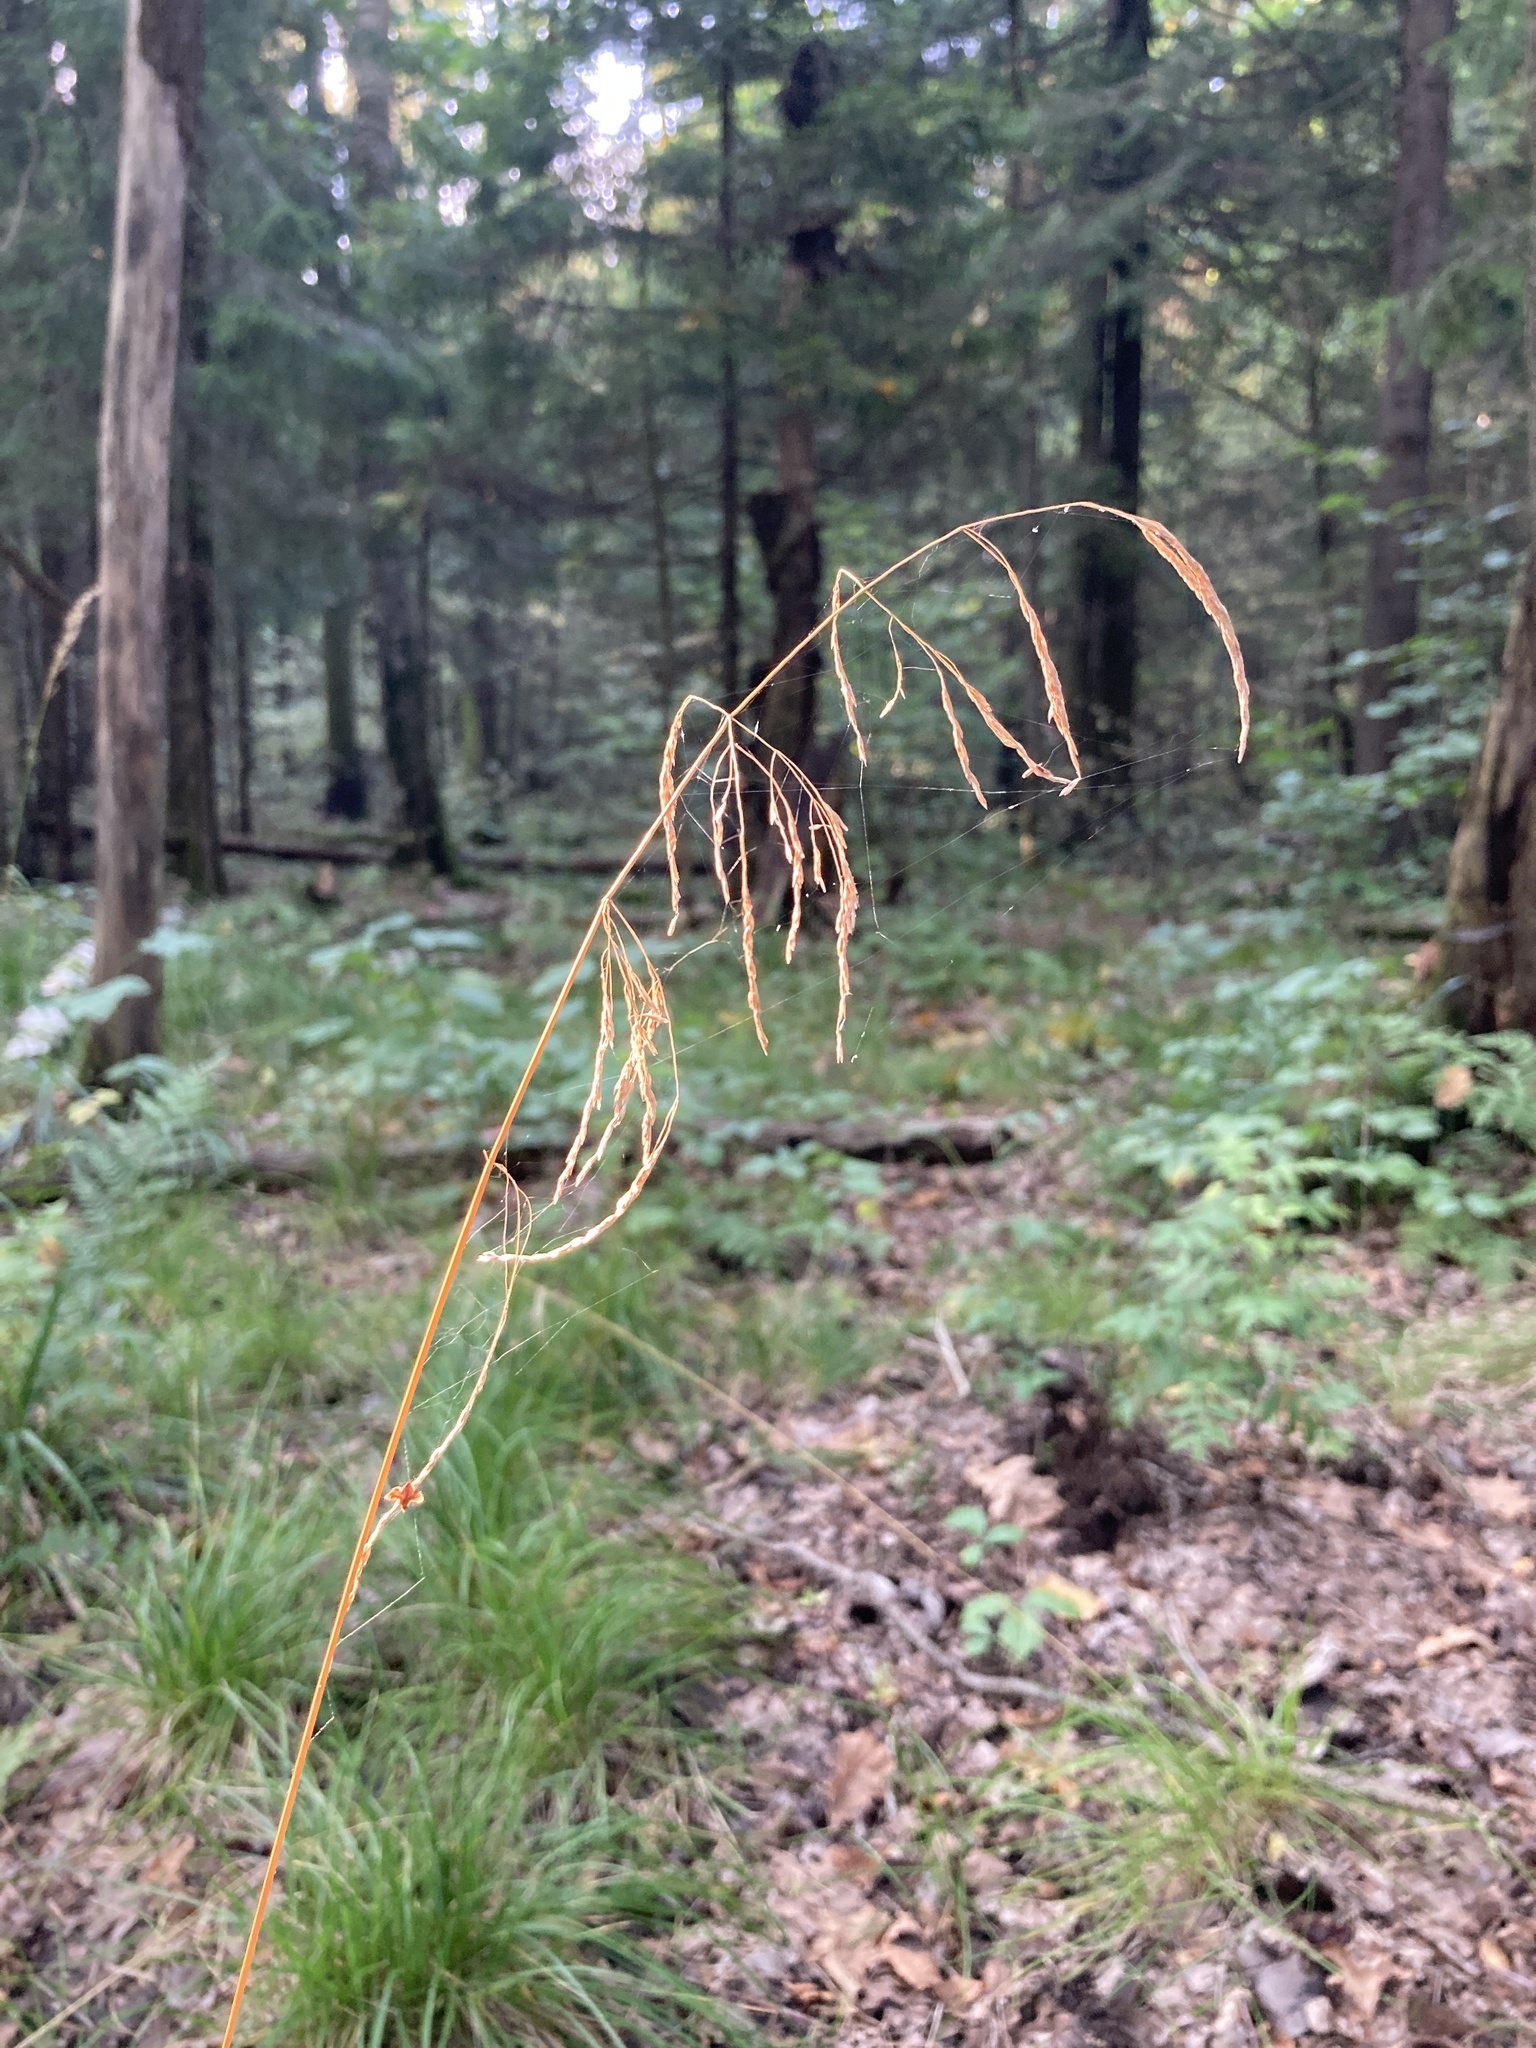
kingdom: Plantae
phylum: Tracheophyta
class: Liliopsida
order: Poales
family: Poaceae
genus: Deschampsia
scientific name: Deschampsia cespitosa
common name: Tufted hair-grass
